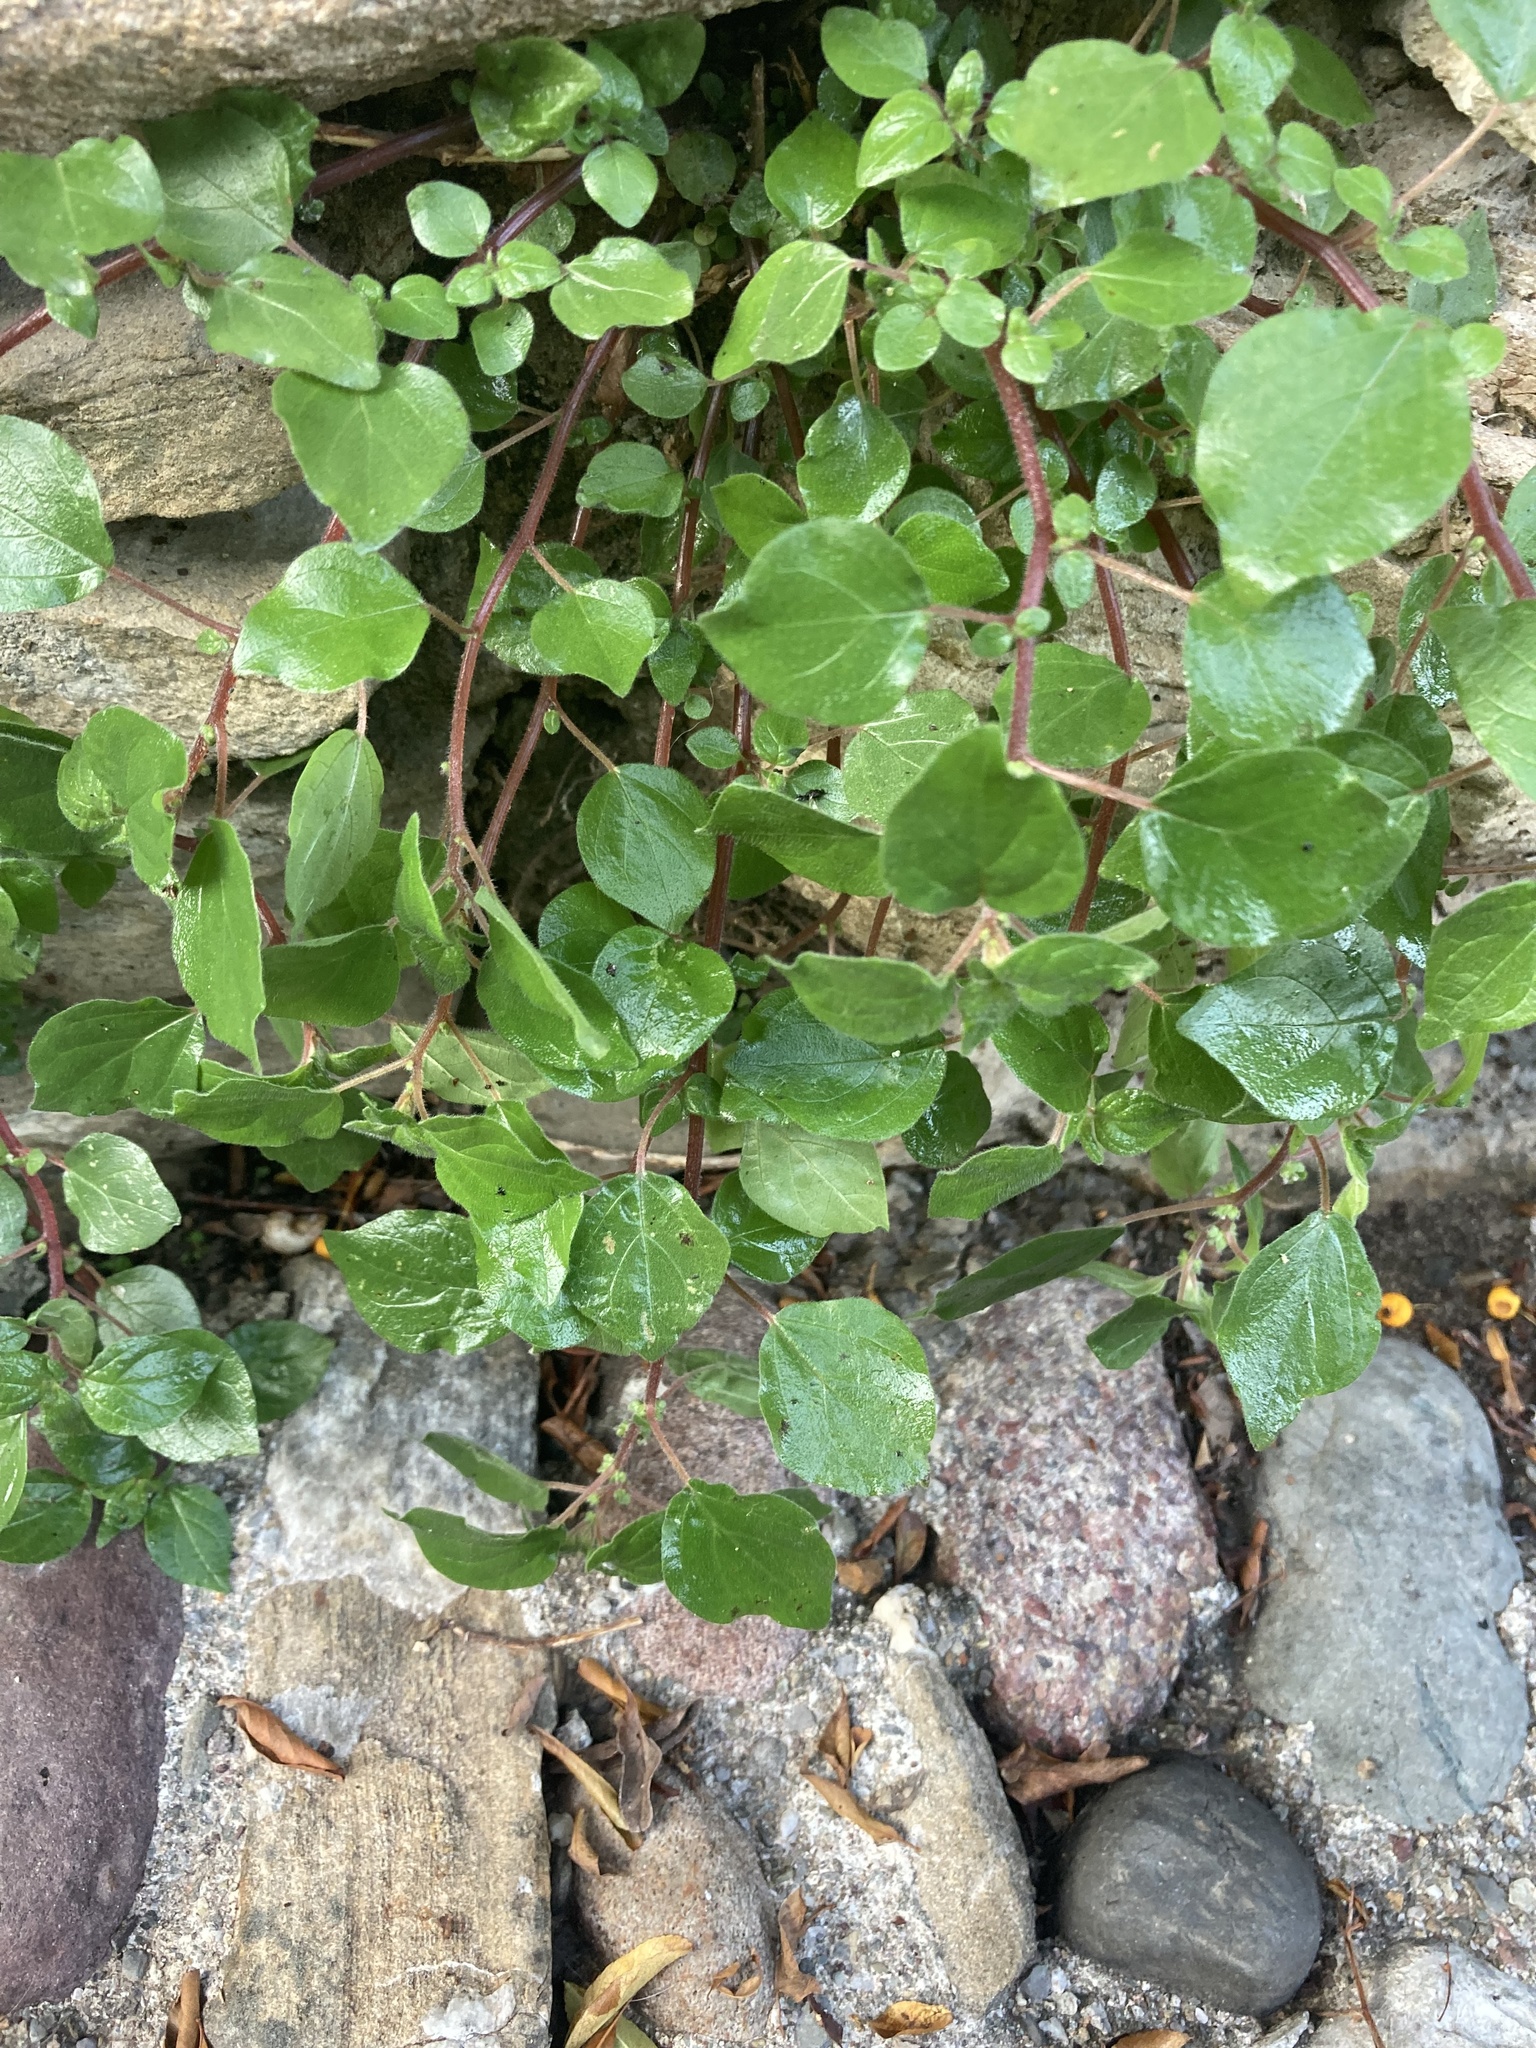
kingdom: Plantae
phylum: Tracheophyta
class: Magnoliopsida
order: Rosales
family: Urticaceae
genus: Parietaria
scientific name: Parietaria judaica
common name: Pellitory-of-the-wall
